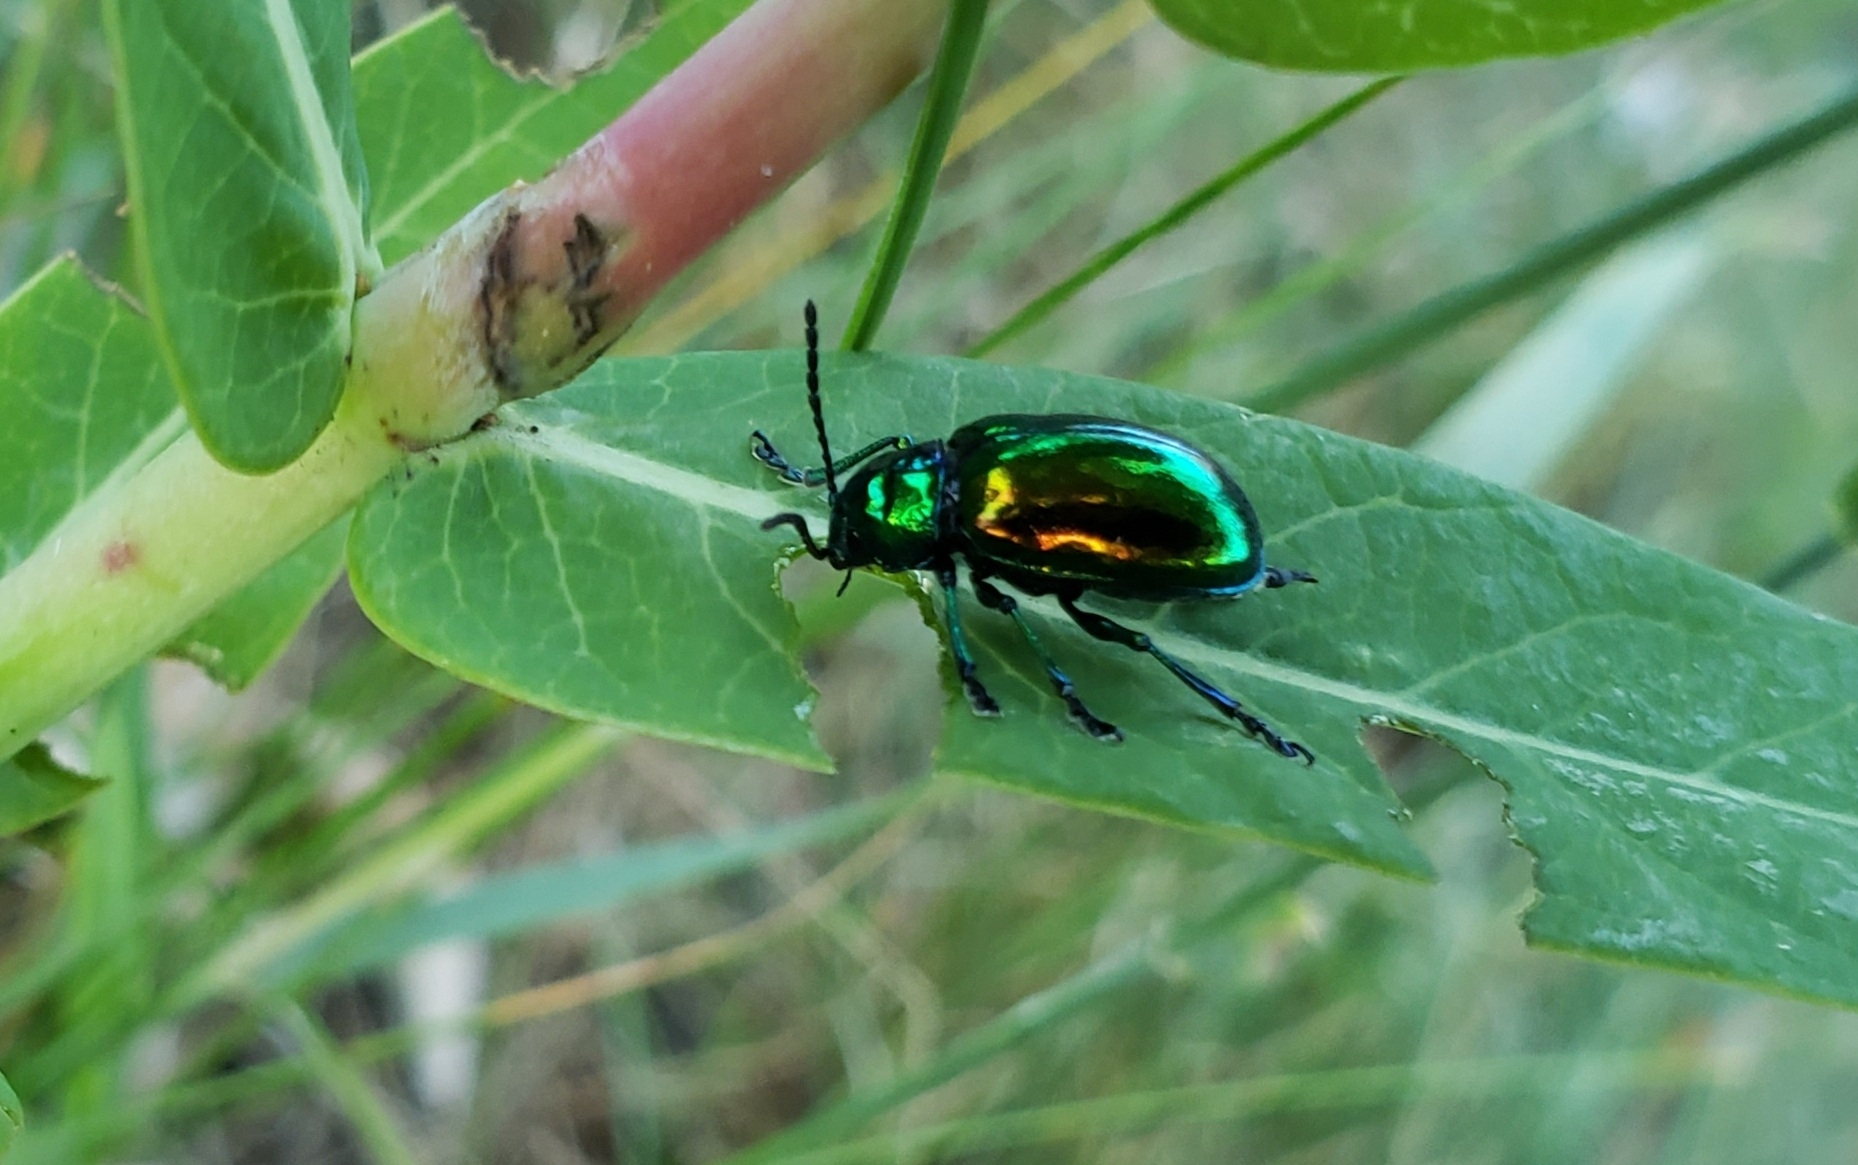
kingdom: Animalia
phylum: Arthropoda
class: Insecta
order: Coleoptera
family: Chrysomelidae
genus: Chrysochus
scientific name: Chrysochus auratus
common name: Dogbane leaf beetle
